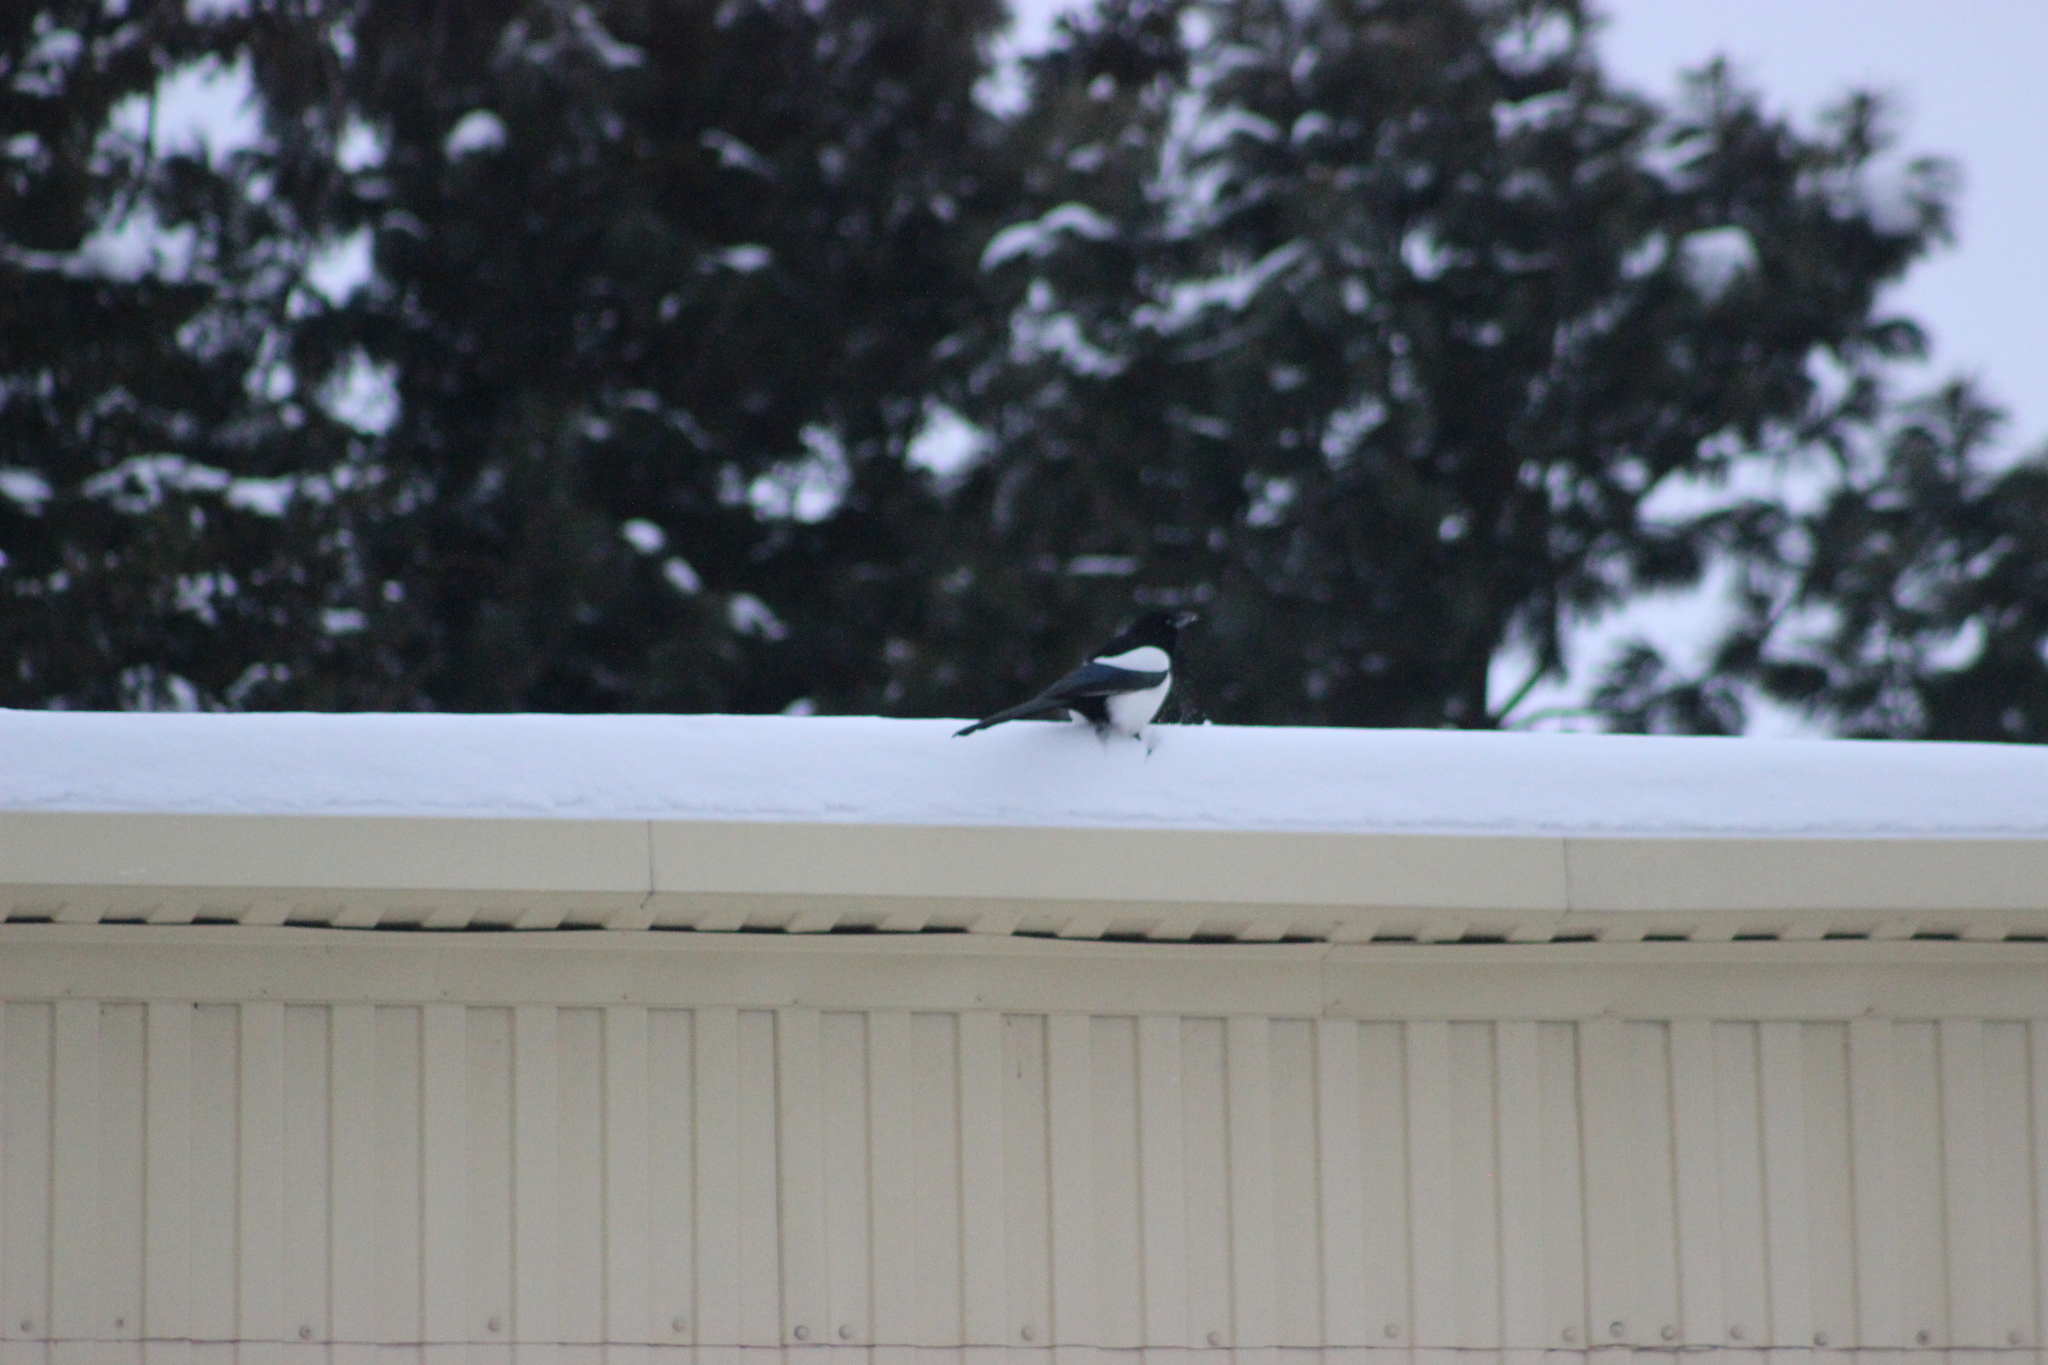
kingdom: Animalia
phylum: Chordata
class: Aves
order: Passeriformes
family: Corvidae
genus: Pica
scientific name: Pica pica
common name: Eurasian magpie
